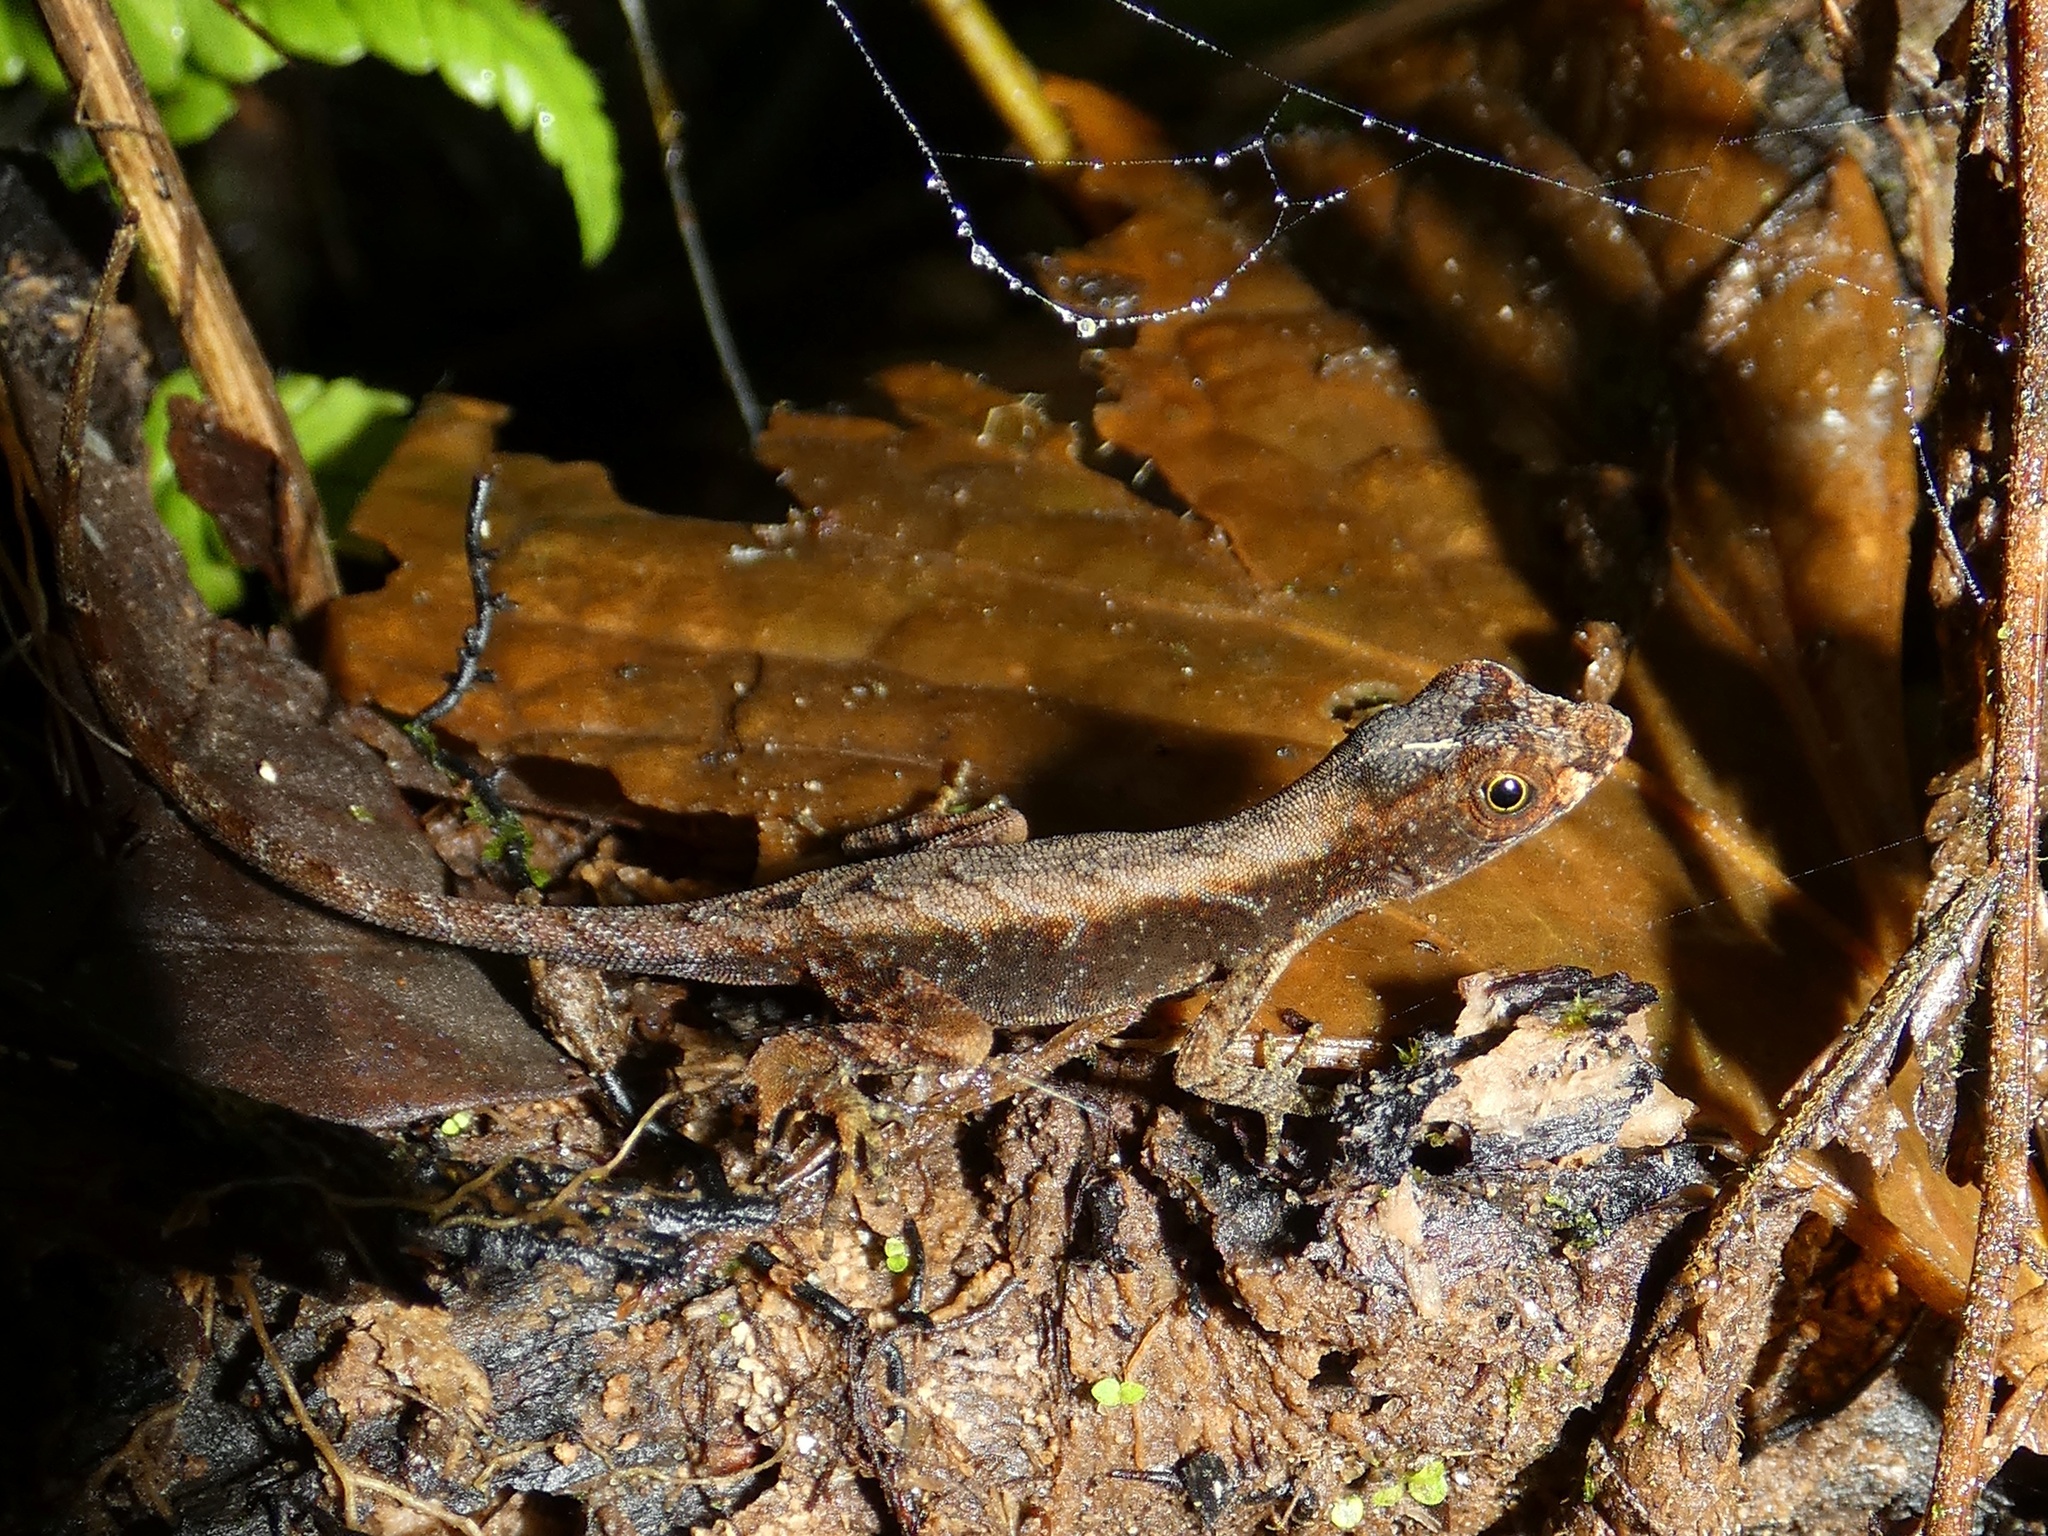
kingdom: Animalia
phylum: Chordata
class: Squamata
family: Dactyloidae
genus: Anolis
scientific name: Anolis humilis
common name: Humble anole
